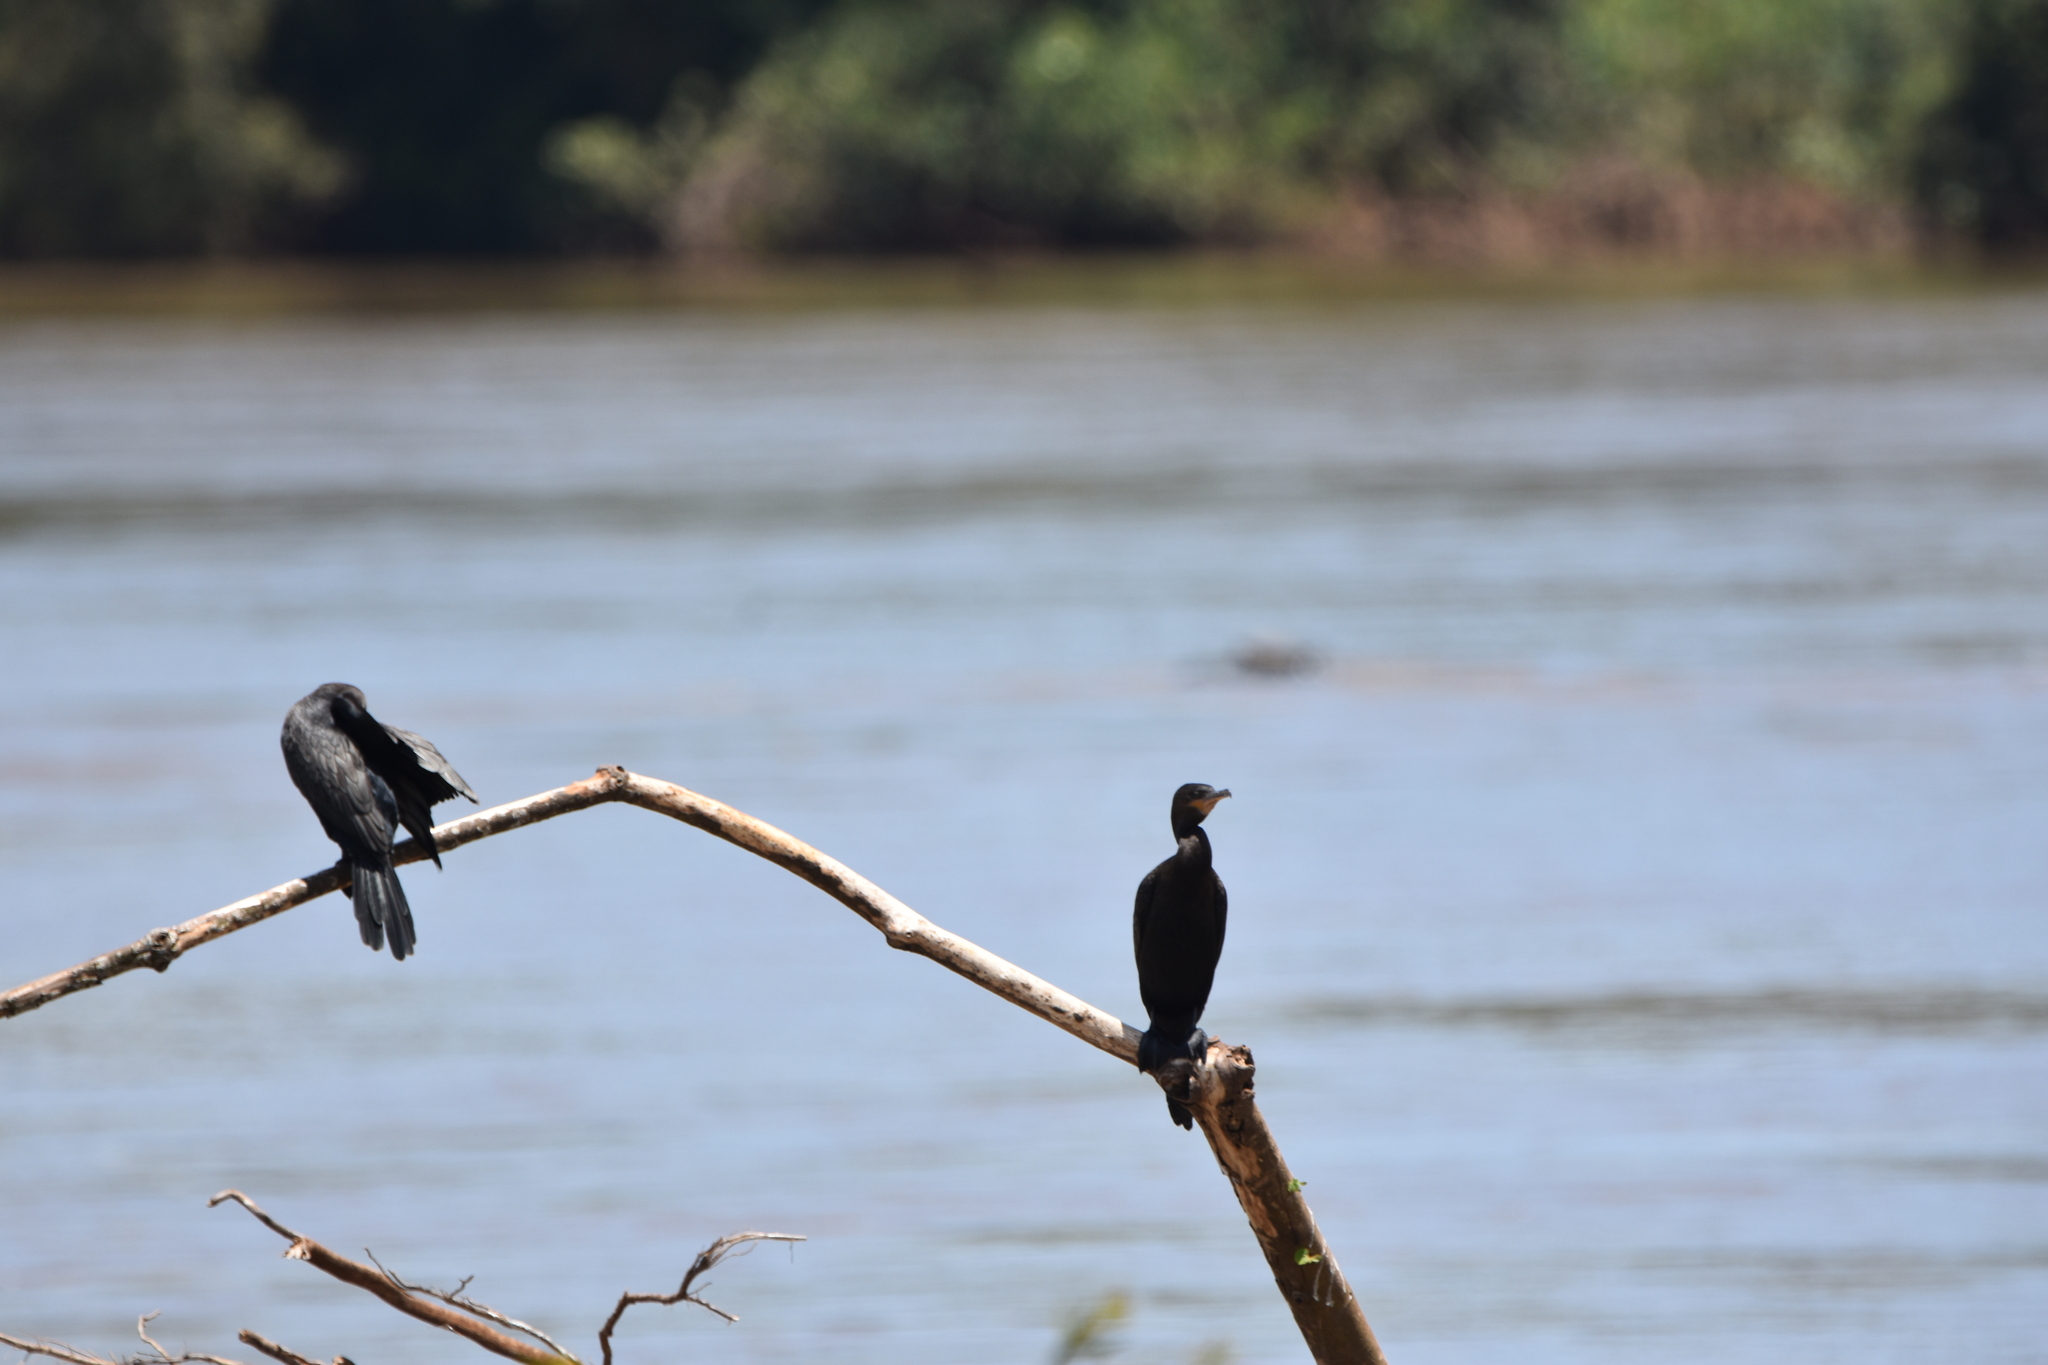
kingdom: Animalia
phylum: Chordata
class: Aves
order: Suliformes
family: Phalacrocoracidae
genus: Phalacrocorax
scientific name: Phalacrocorax brasilianus
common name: Neotropic cormorant
